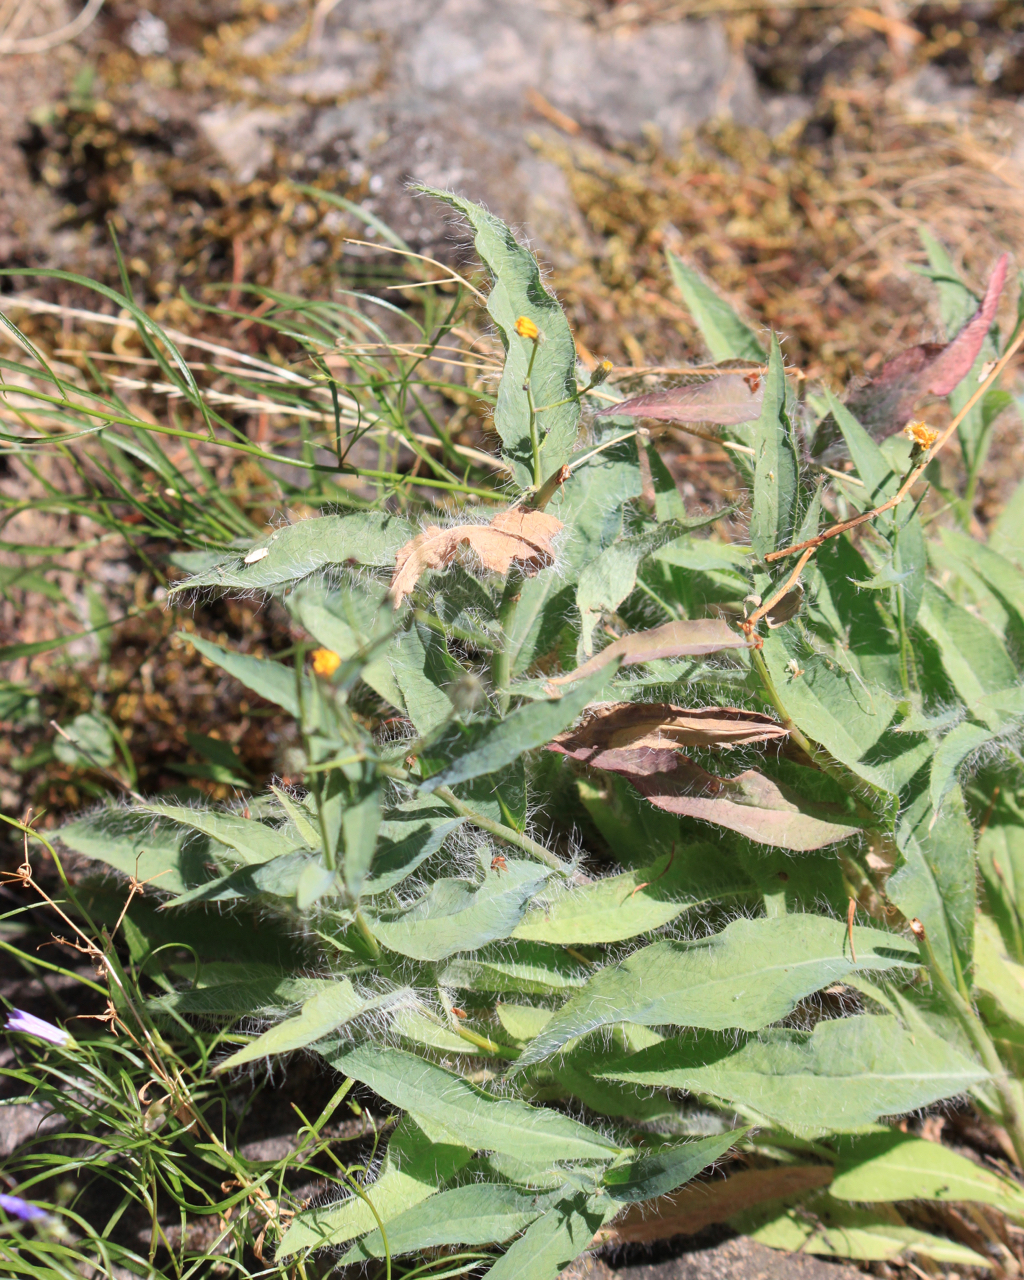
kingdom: Plantae
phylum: Tracheophyta
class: Magnoliopsida
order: Asterales
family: Asteraceae
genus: Hieracium
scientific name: Hieracium longiberbe
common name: Long-bearded hawkweed
